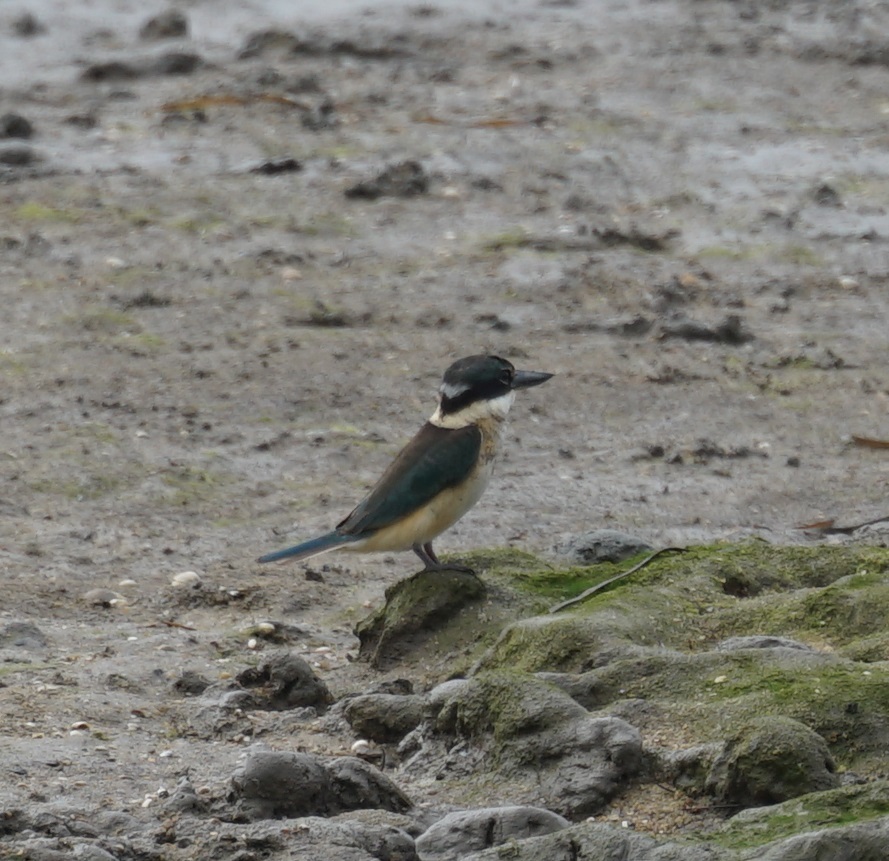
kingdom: Animalia
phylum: Chordata
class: Aves
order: Coraciiformes
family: Alcedinidae
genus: Todiramphus
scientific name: Todiramphus sanctus
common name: Sacred kingfisher
